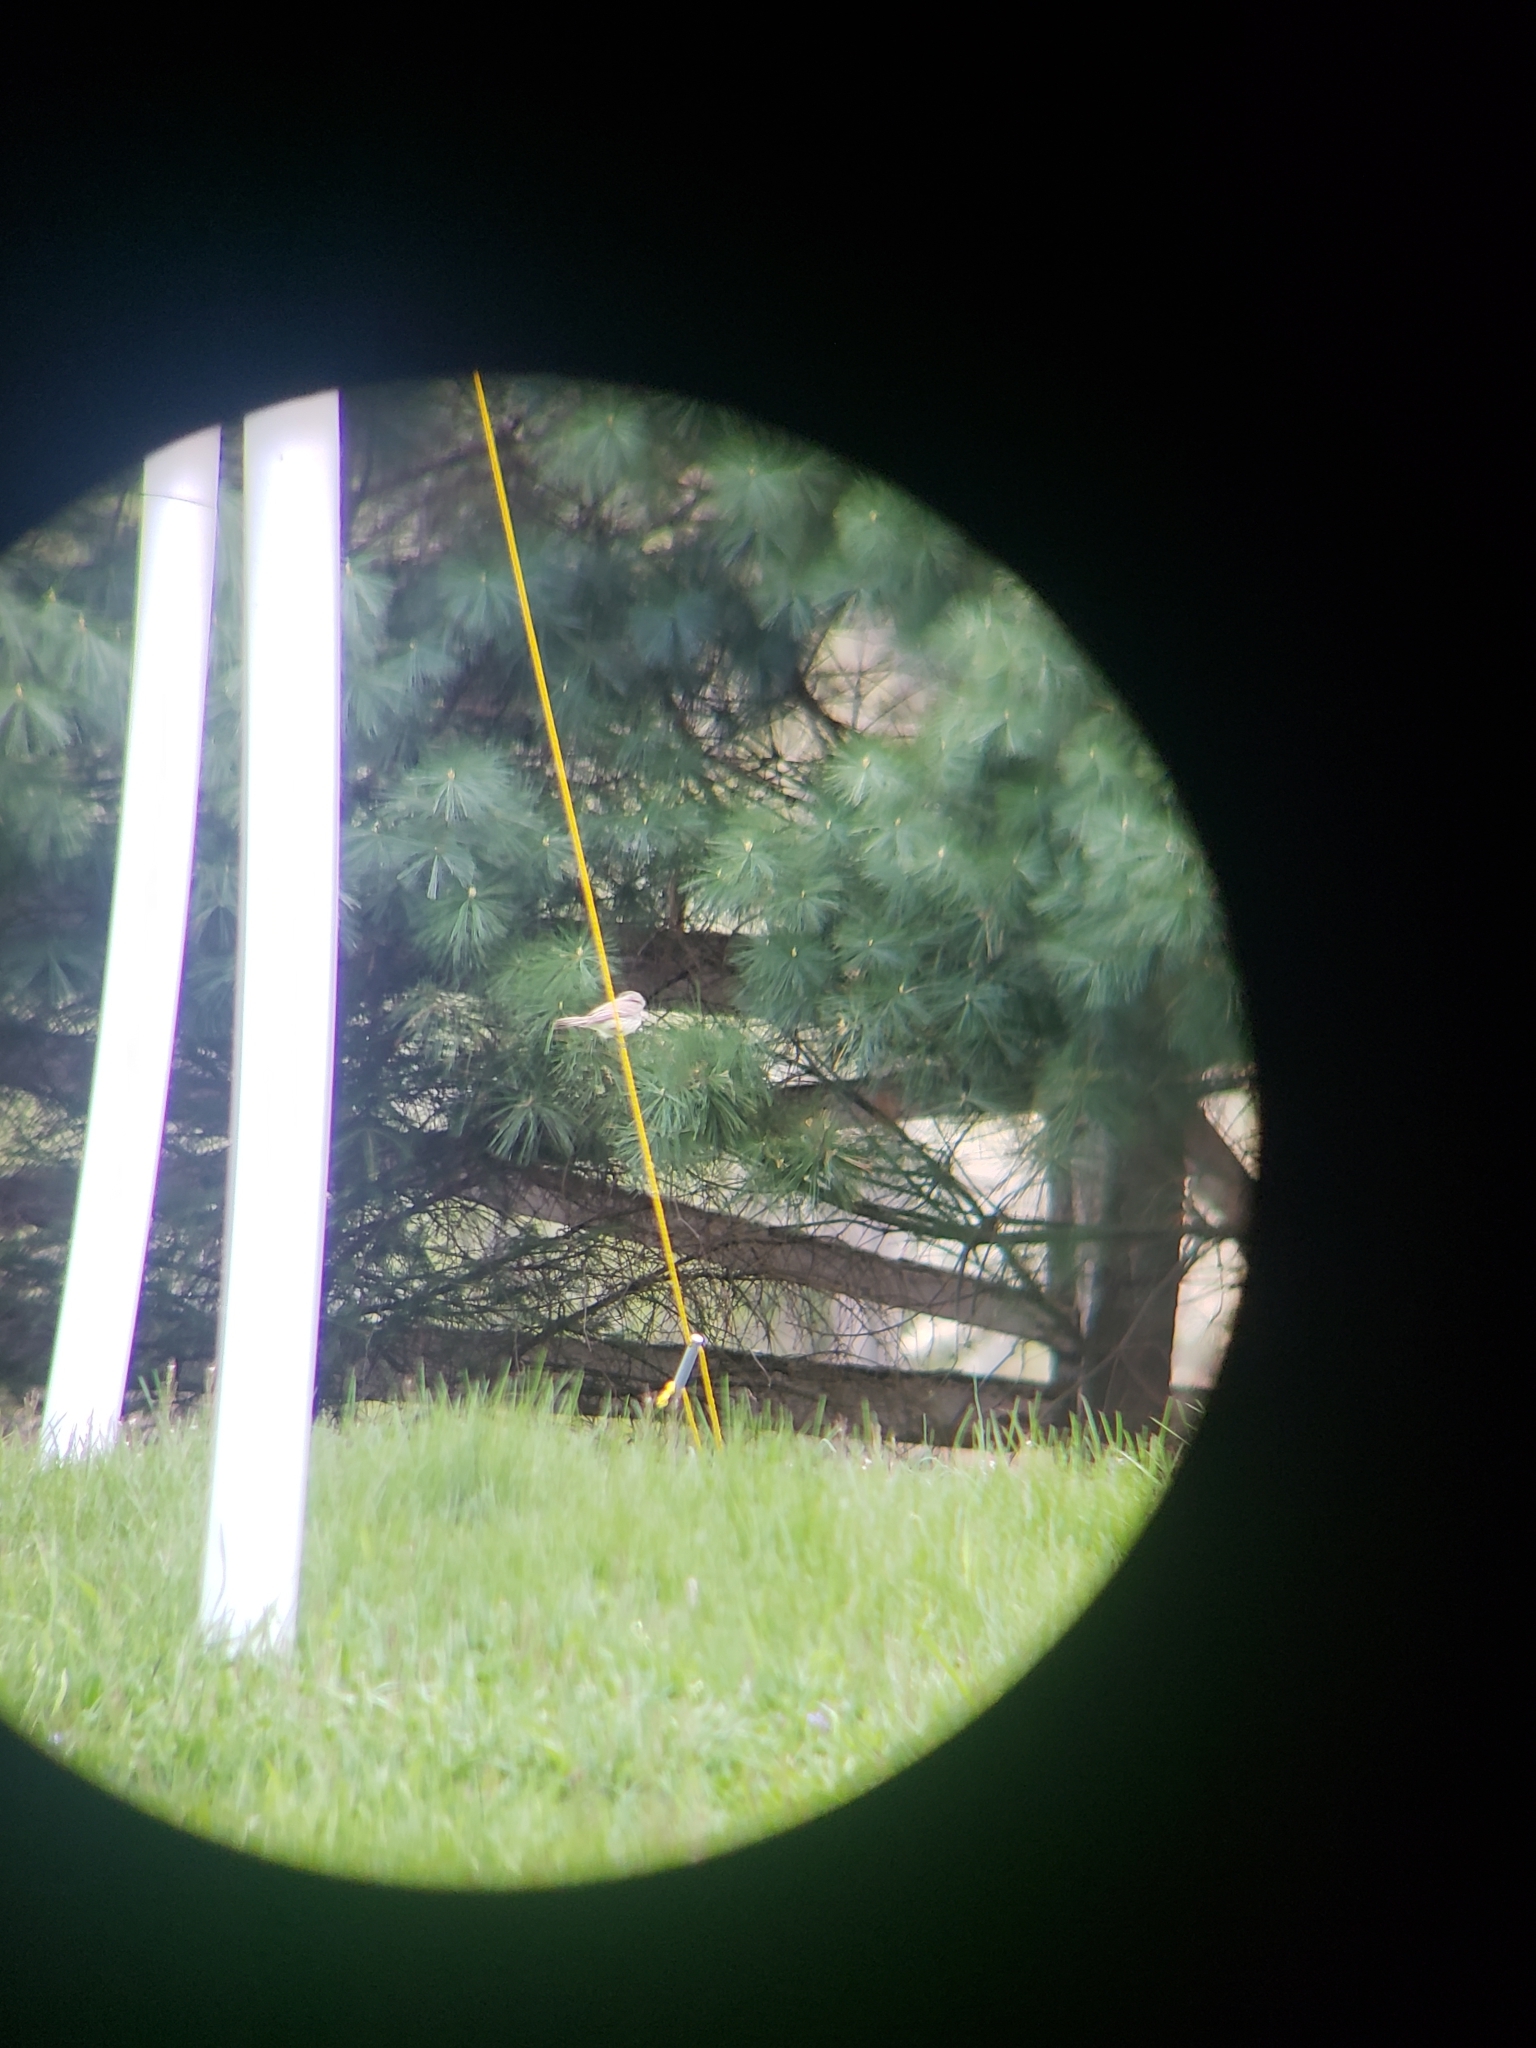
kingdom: Animalia
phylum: Chordata
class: Aves
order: Passeriformes
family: Tyrannidae
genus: Sayornis
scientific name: Sayornis phoebe
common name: Eastern phoebe
